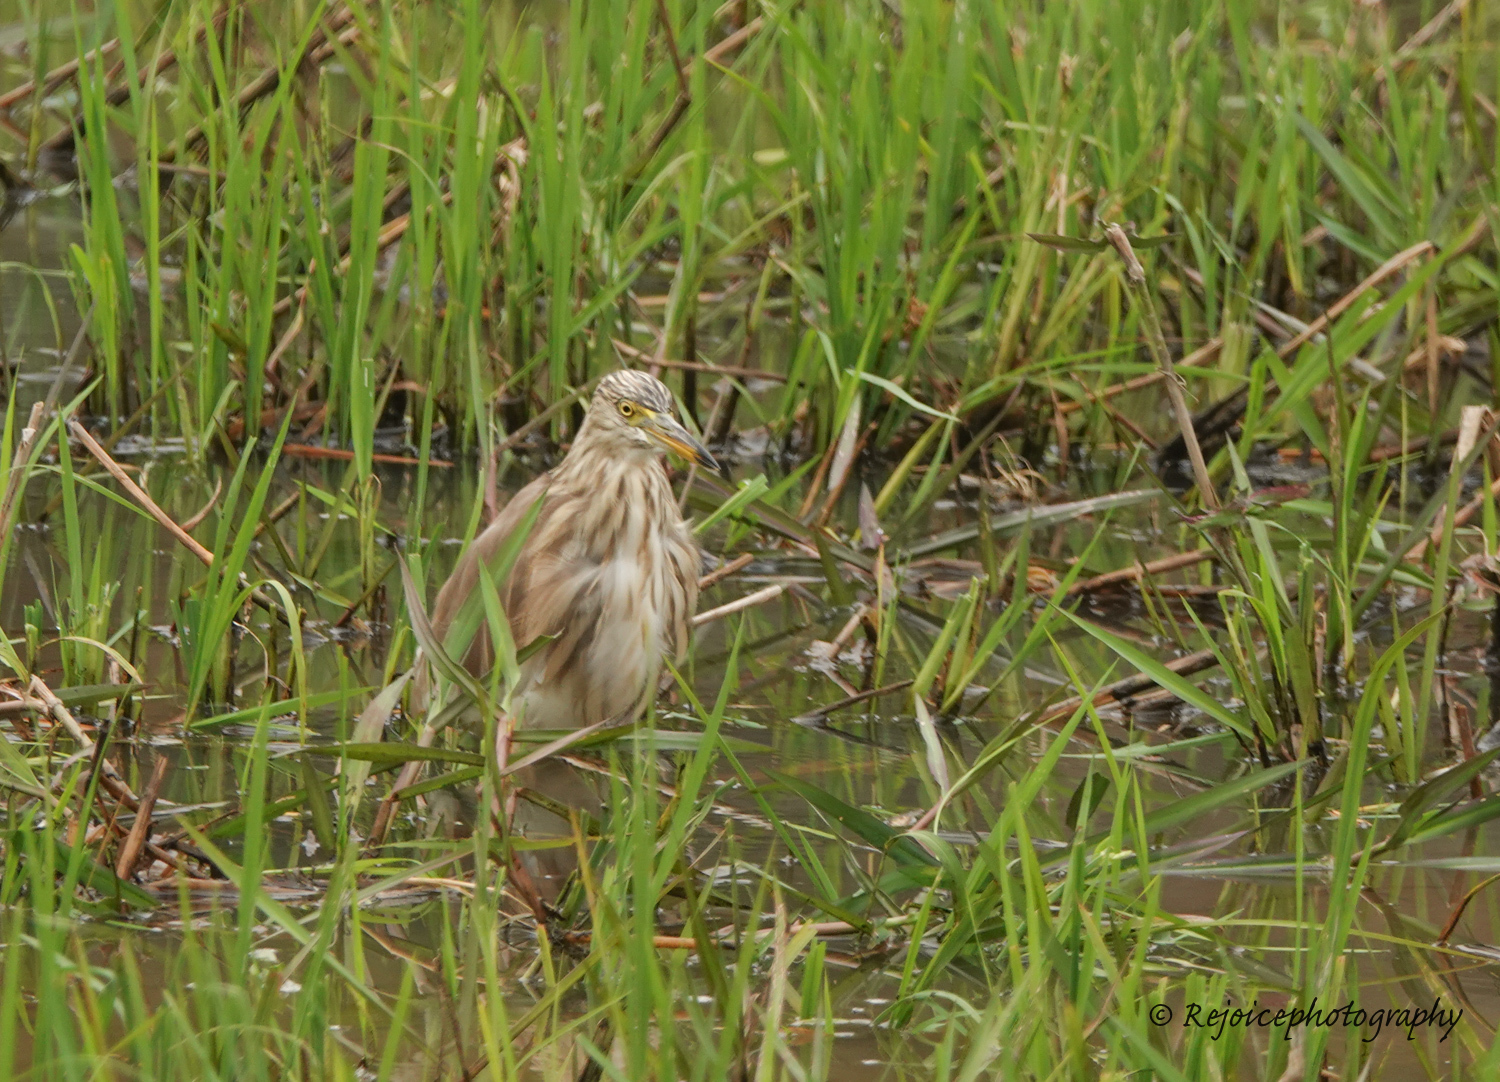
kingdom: Animalia
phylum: Chordata
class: Aves
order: Pelecaniformes
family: Ardeidae
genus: Ardeola
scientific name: Ardeola grayii
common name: Indian pond heron
